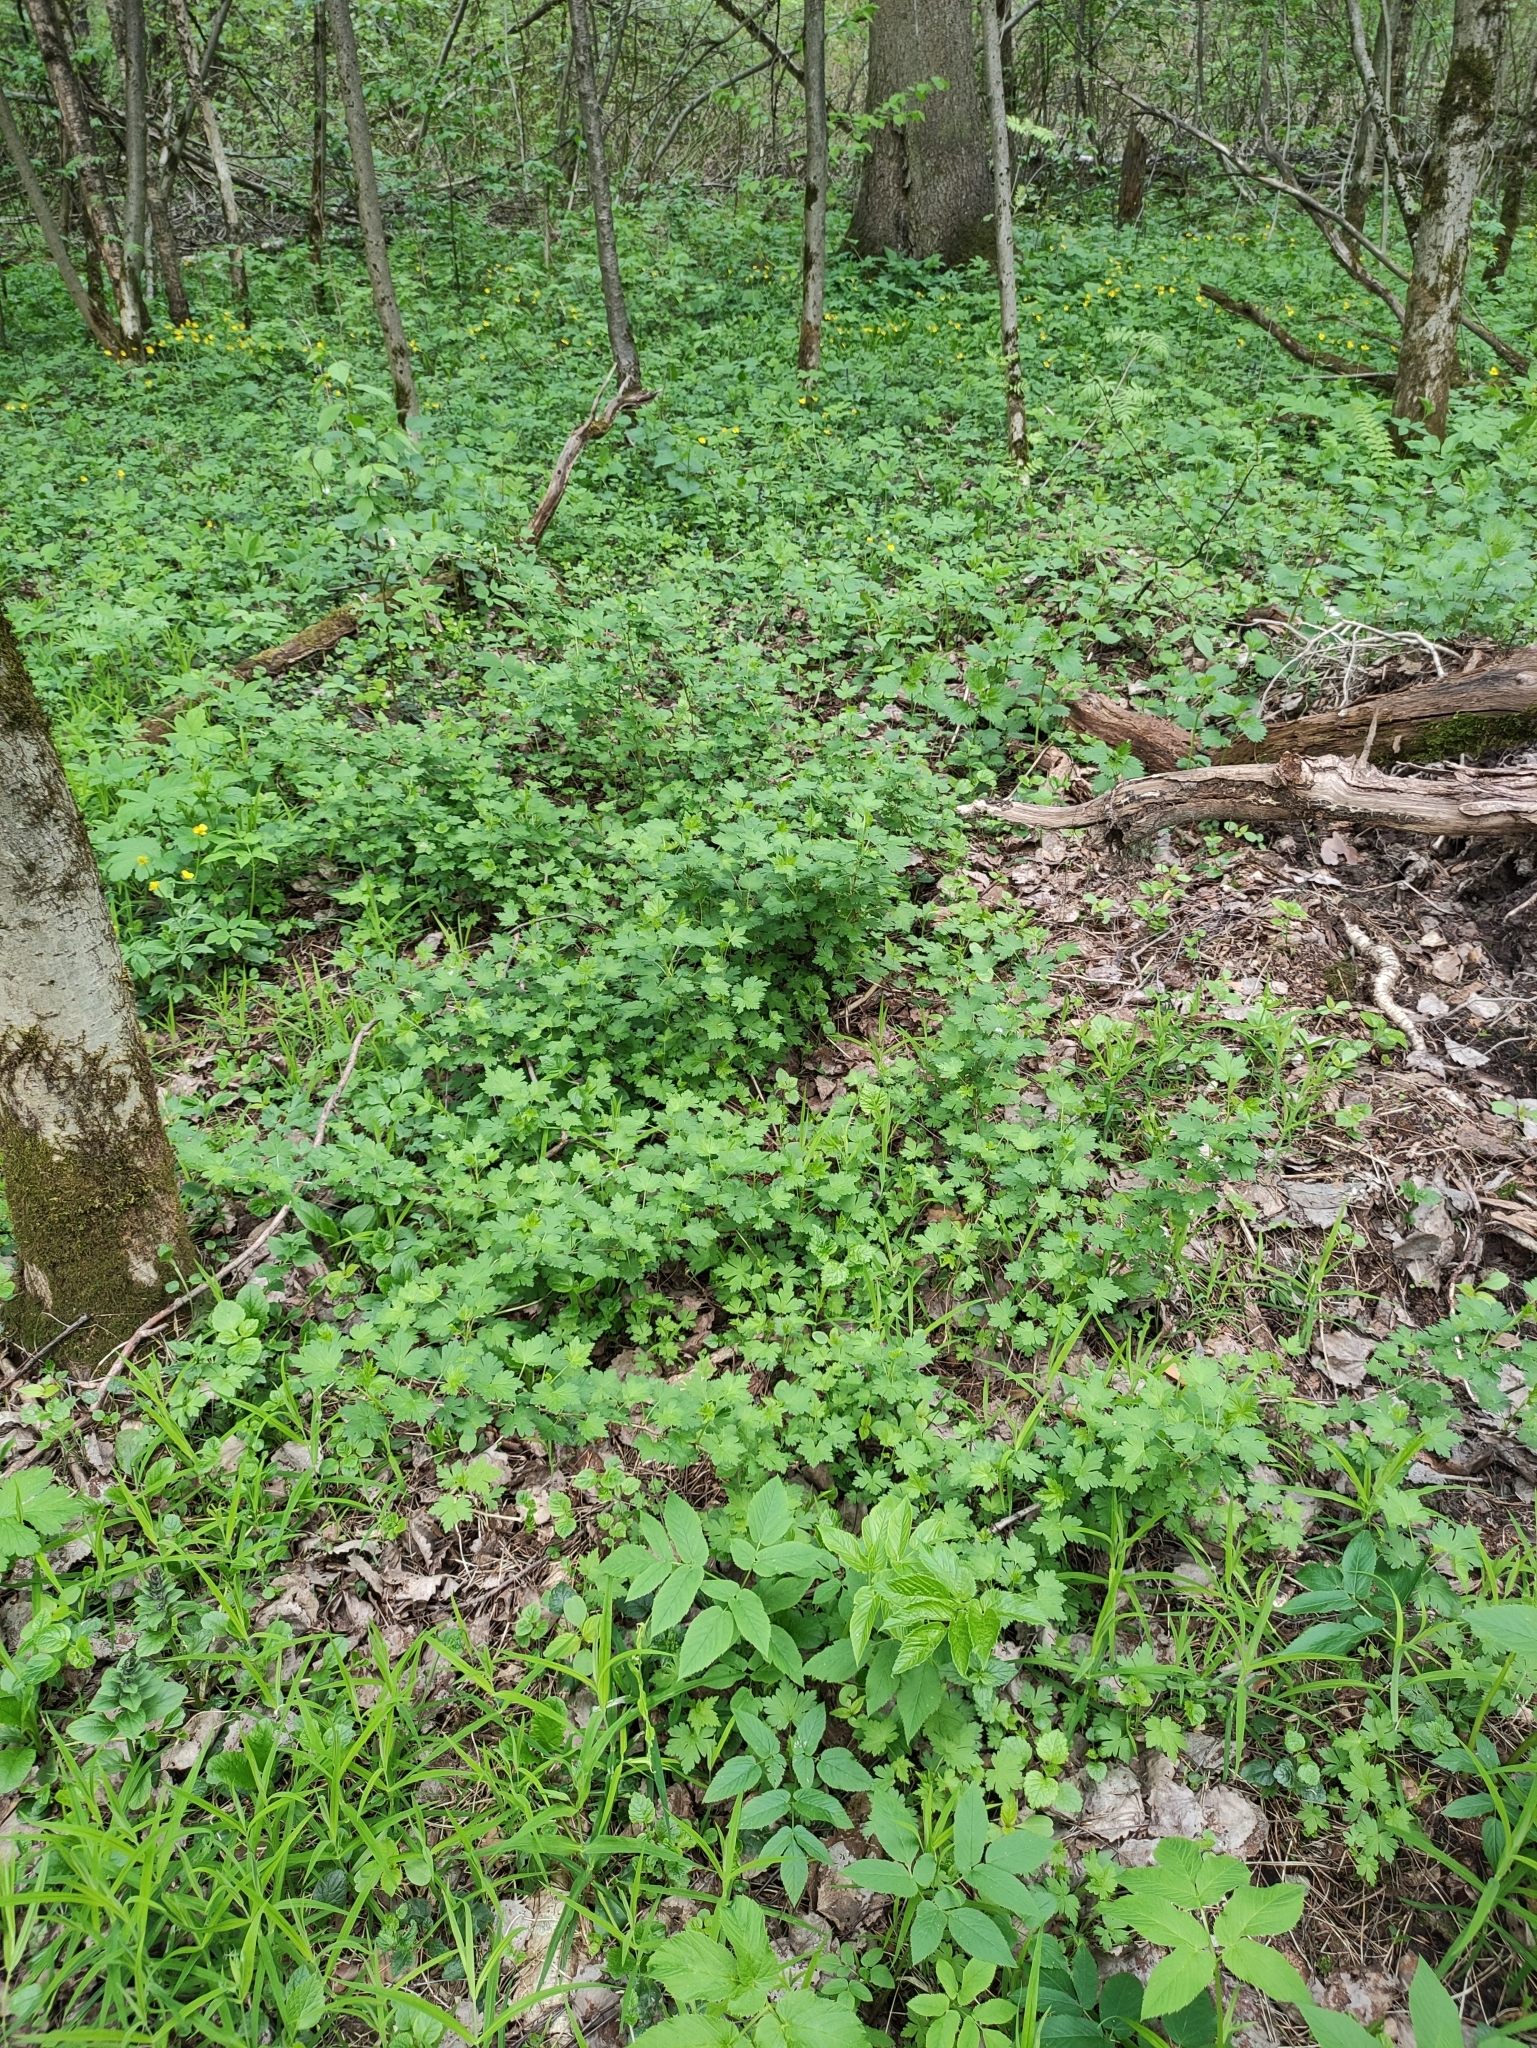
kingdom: Plantae
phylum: Tracheophyta
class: Magnoliopsida
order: Saxifragales
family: Grossulariaceae
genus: Ribes
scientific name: Ribes uva-crispa
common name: Gooseberry
